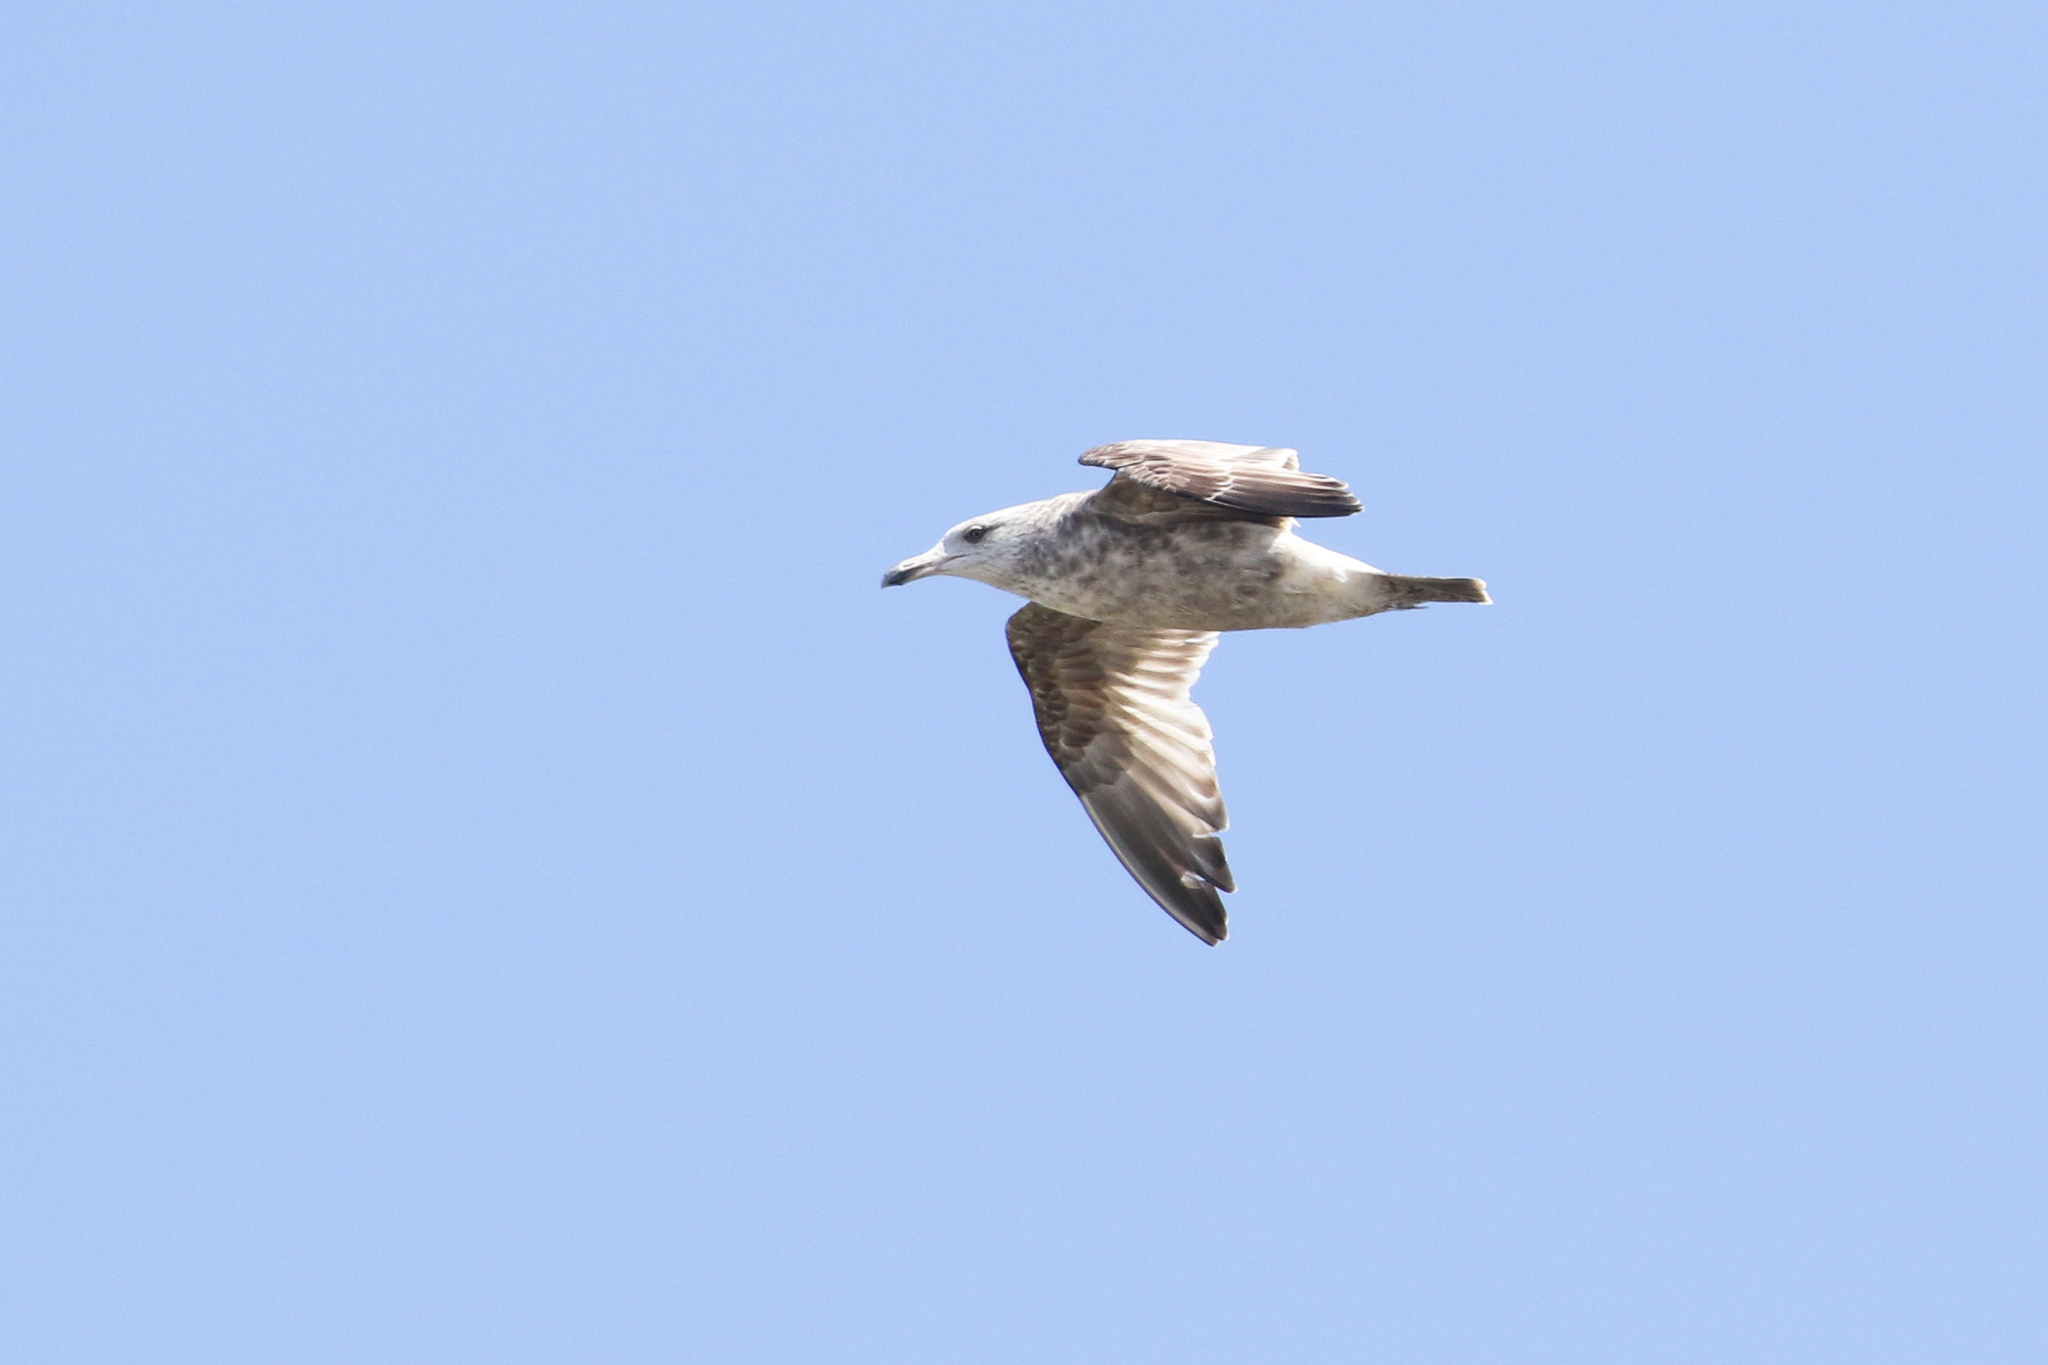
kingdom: Animalia
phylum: Chordata
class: Aves
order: Charadriiformes
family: Laridae
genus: Larus
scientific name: Larus argentatus
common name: Herring gull
